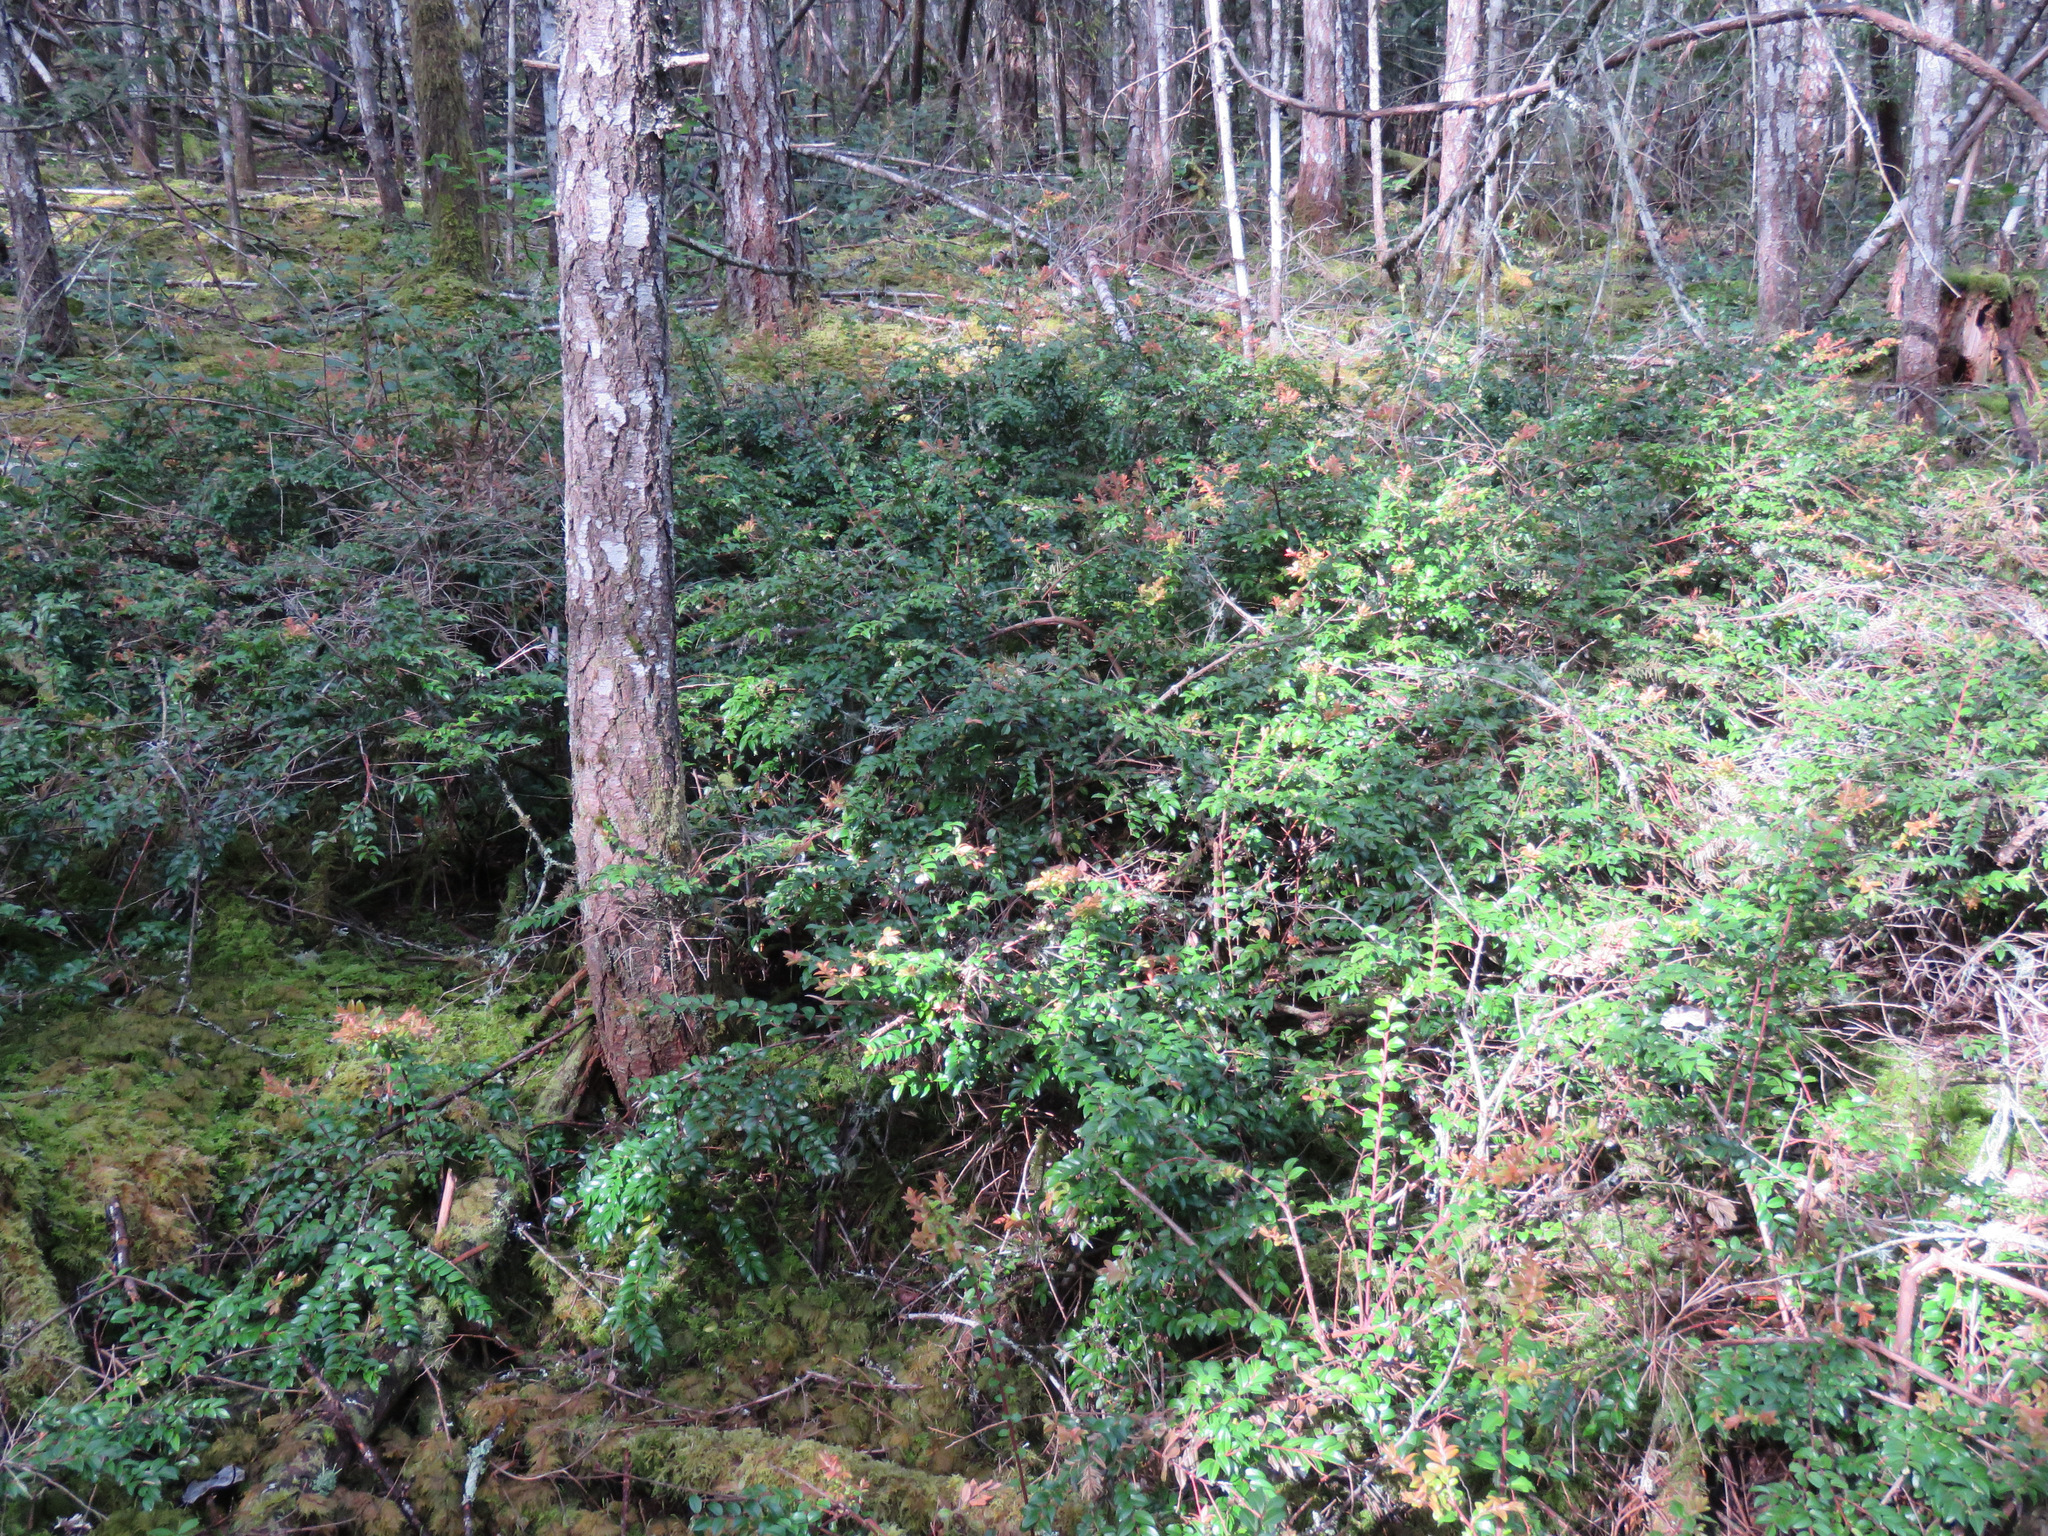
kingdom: Plantae
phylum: Tracheophyta
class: Magnoliopsida
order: Ericales
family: Ericaceae
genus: Vaccinium
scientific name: Vaccinium ovatum
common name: California-huckleberry
